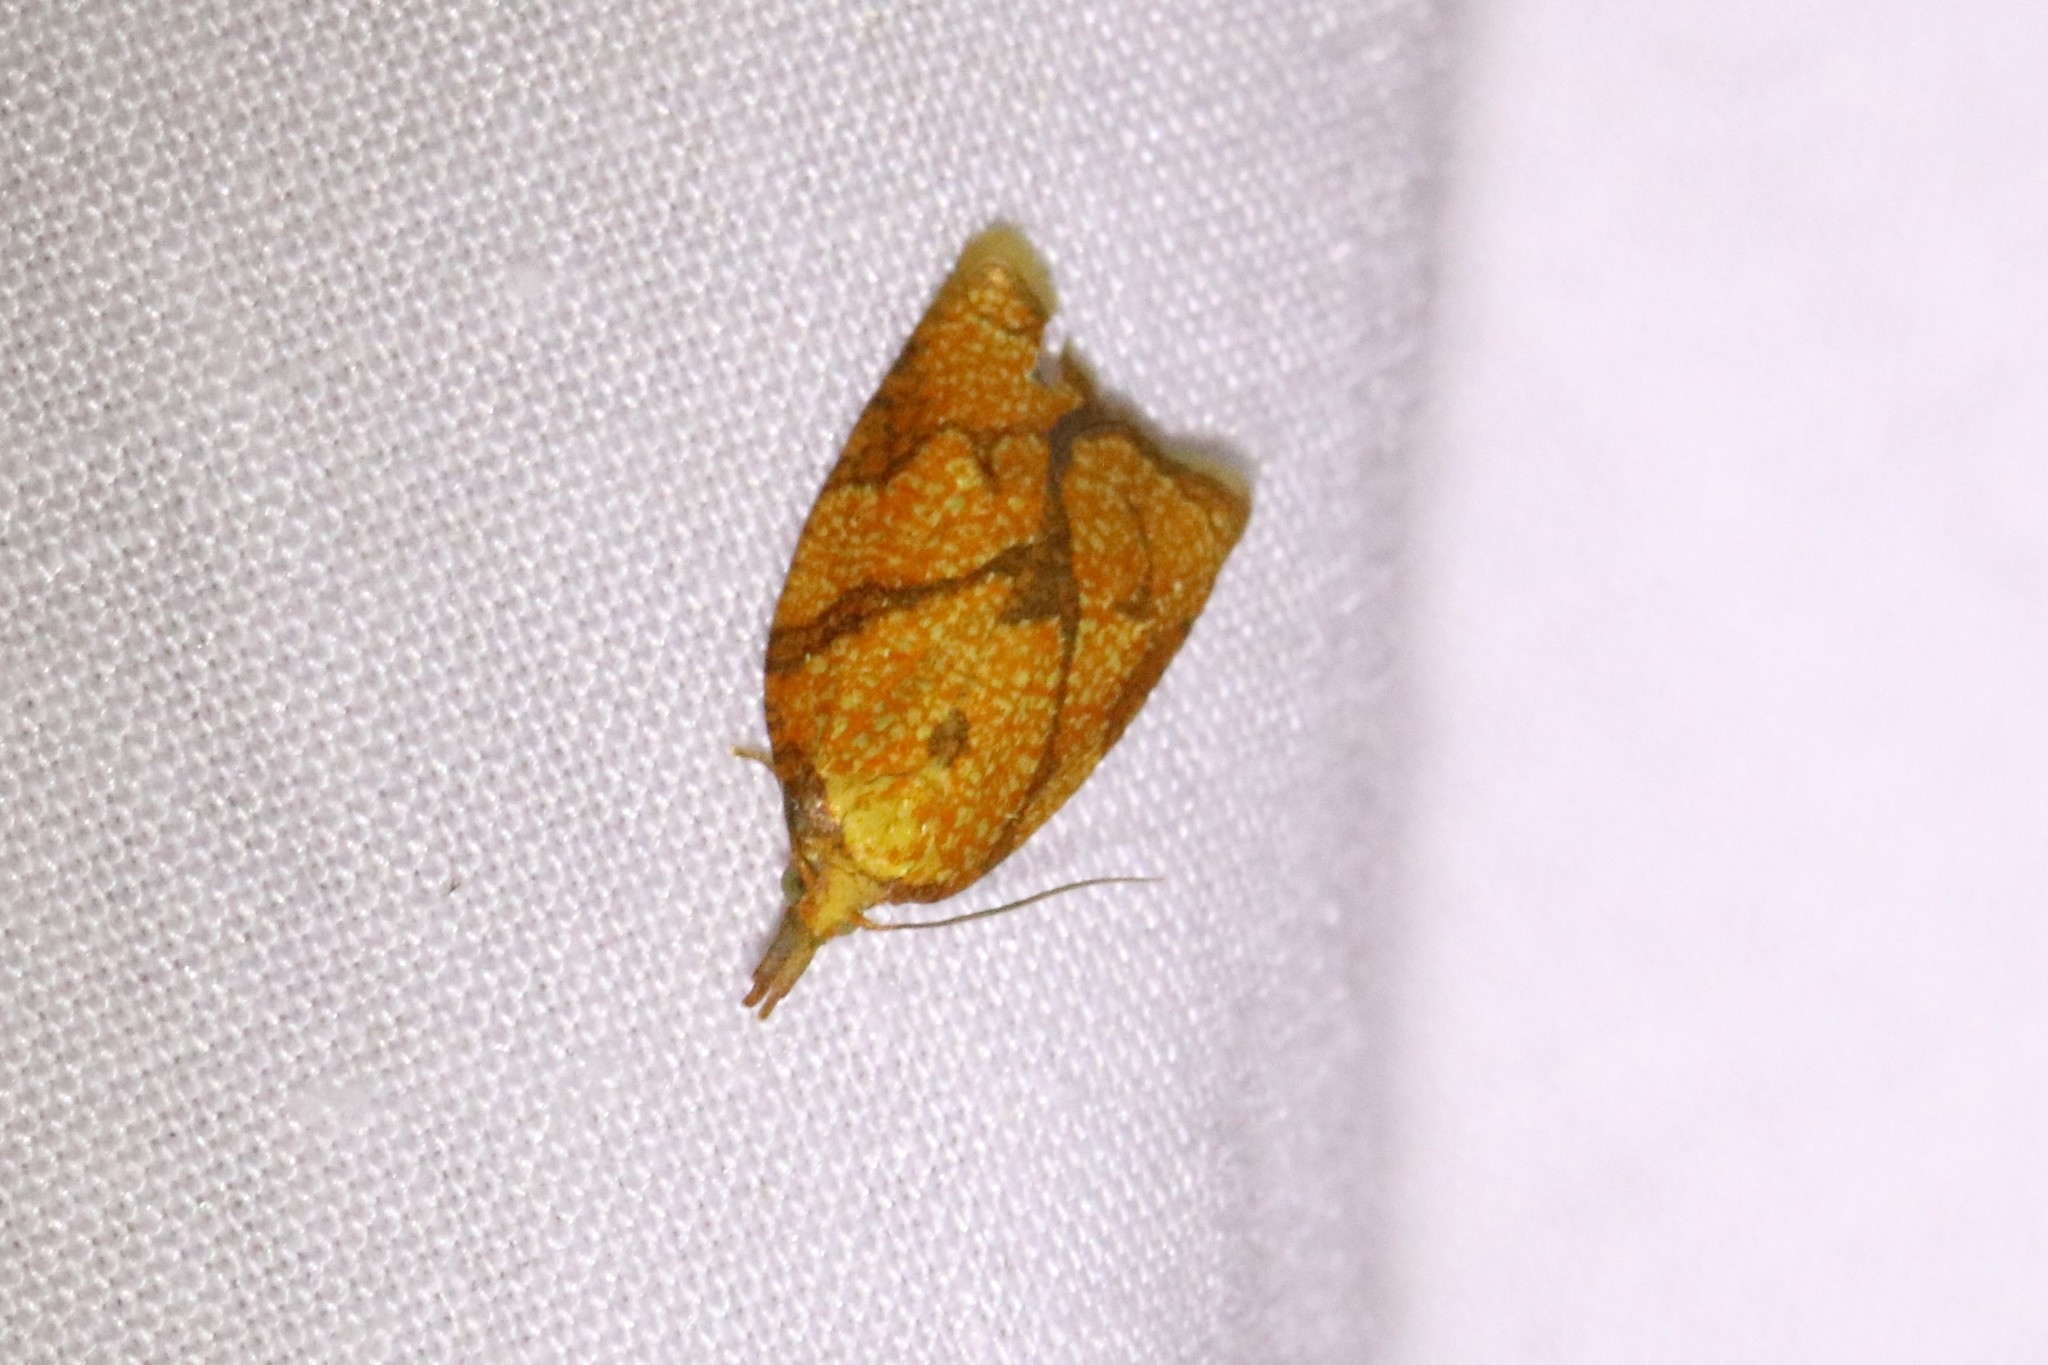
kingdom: Animalia
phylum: Arthropoda
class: Insecta
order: Lepidoptera
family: Tortricidae
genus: Cenopis
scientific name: Cenopis reticulatana
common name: Reticulated fruitworm moth
